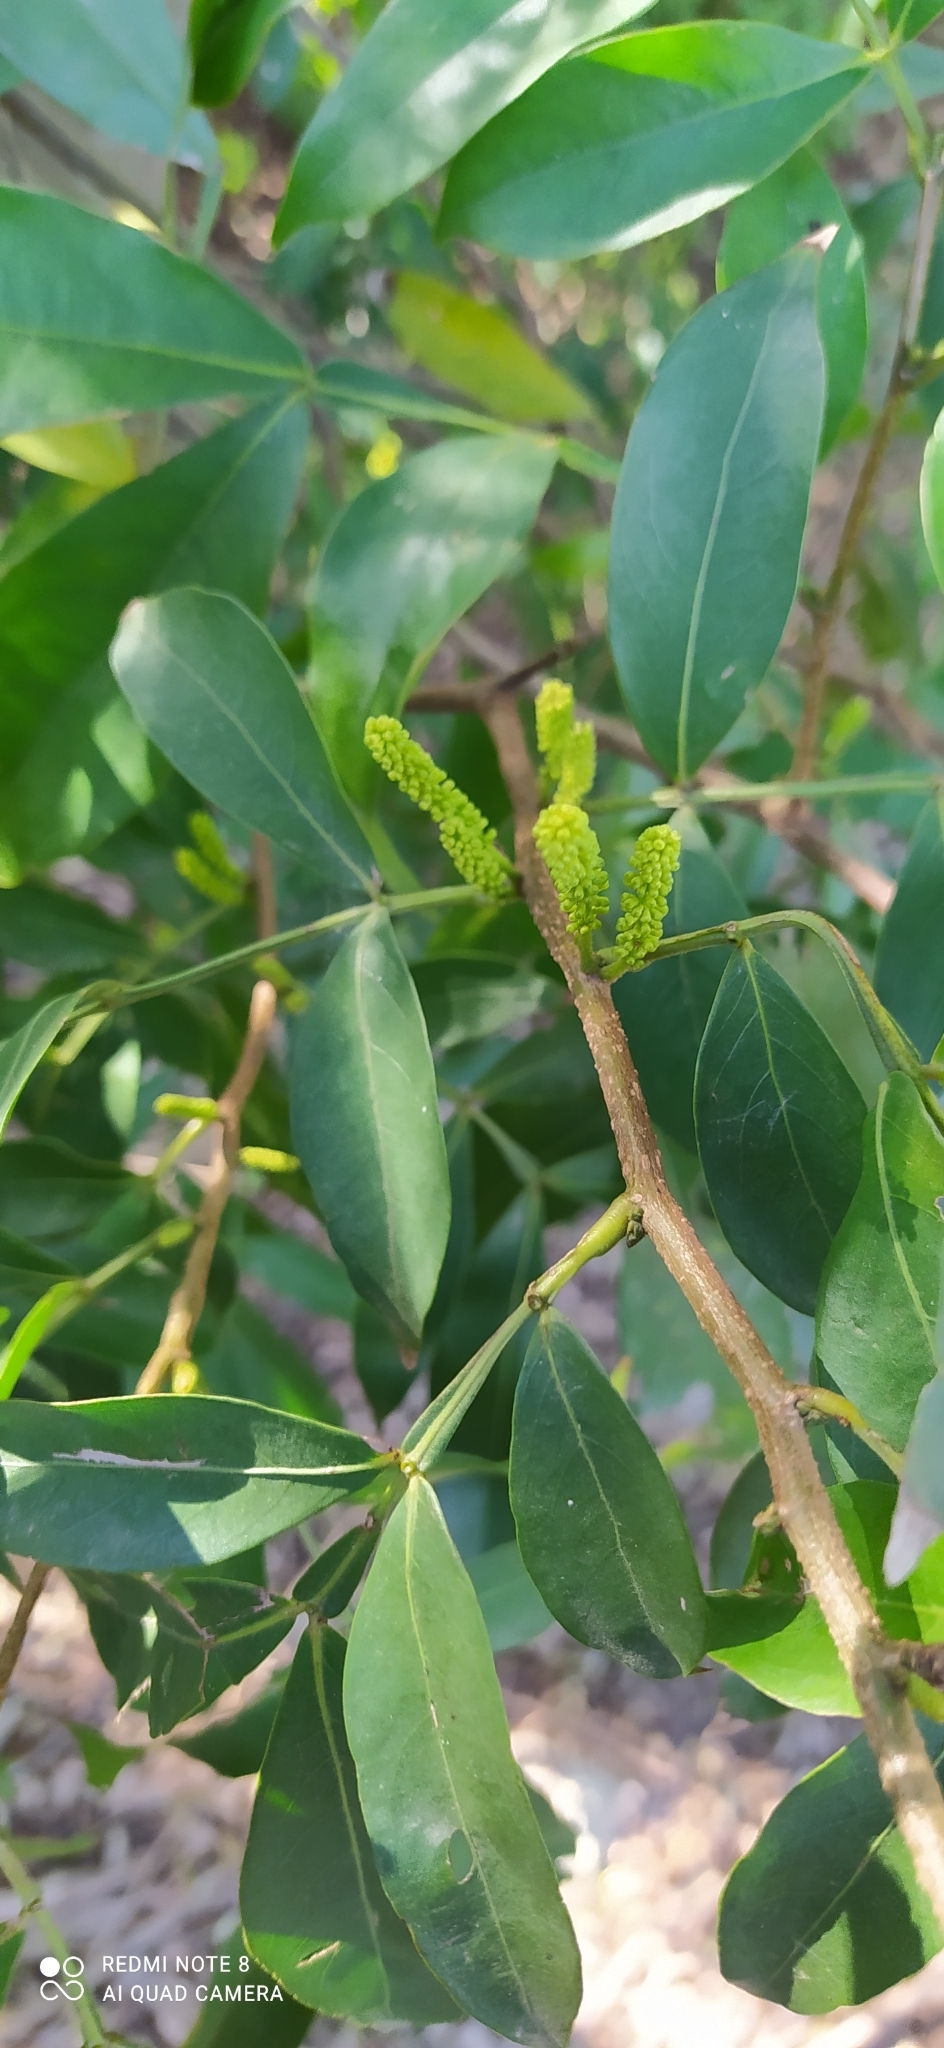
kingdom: Plantae
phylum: Tracheophyta
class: Magnoliopsida
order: Fabales
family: Fabaceae
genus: Inga
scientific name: Inga laurina
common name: Red wood
